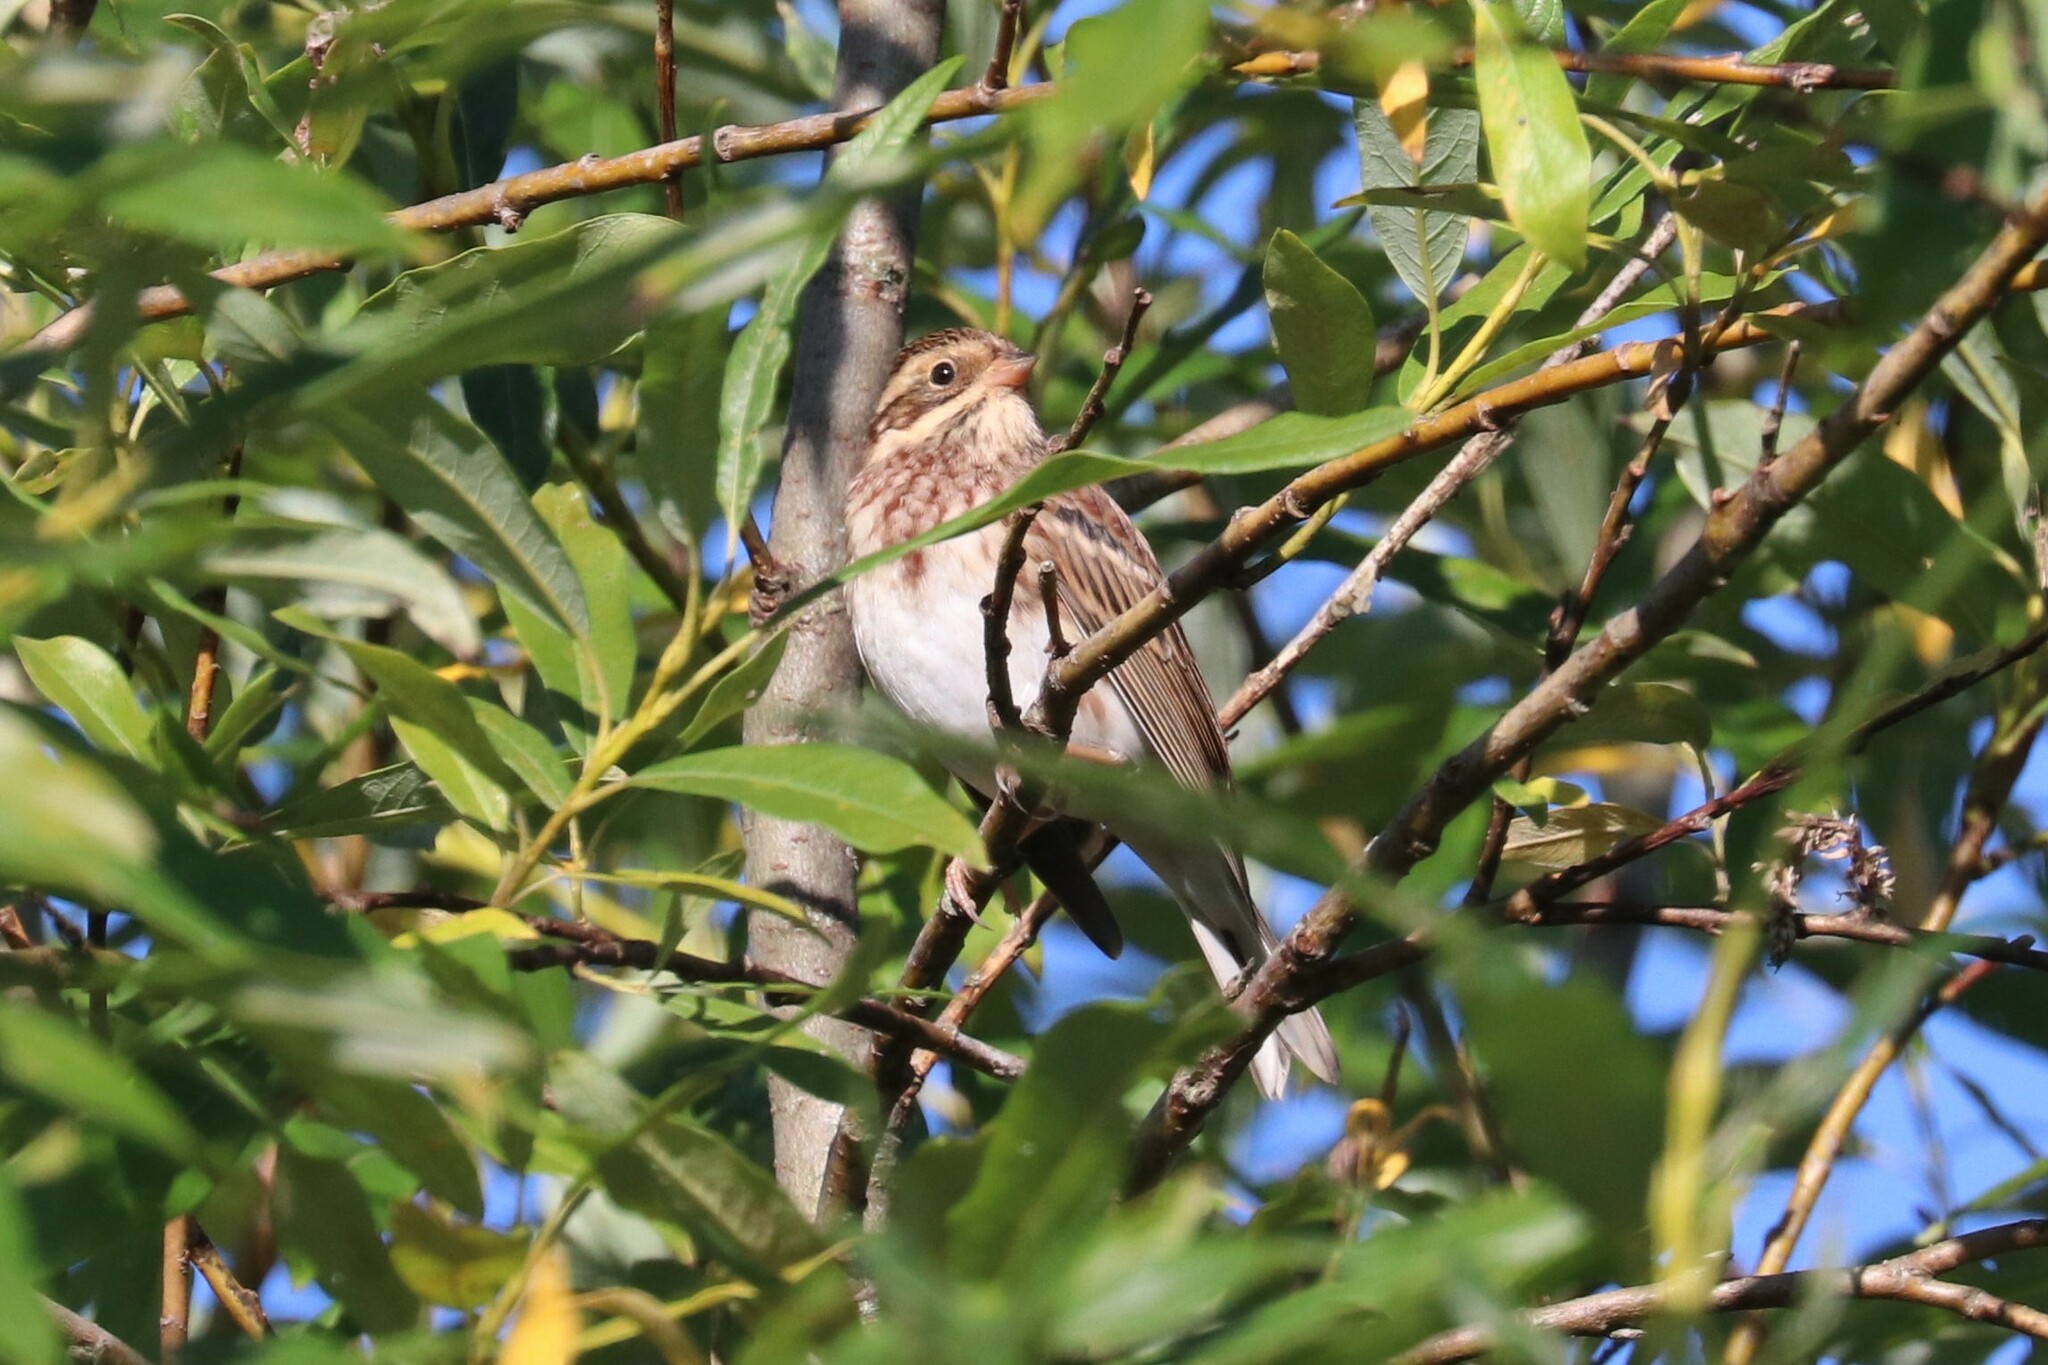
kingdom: Animalia
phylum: Chordata
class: Aves
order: Passeriformes
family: Emberizidae
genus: Emberiza
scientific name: Emberiza rustica
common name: Rustic bunting
